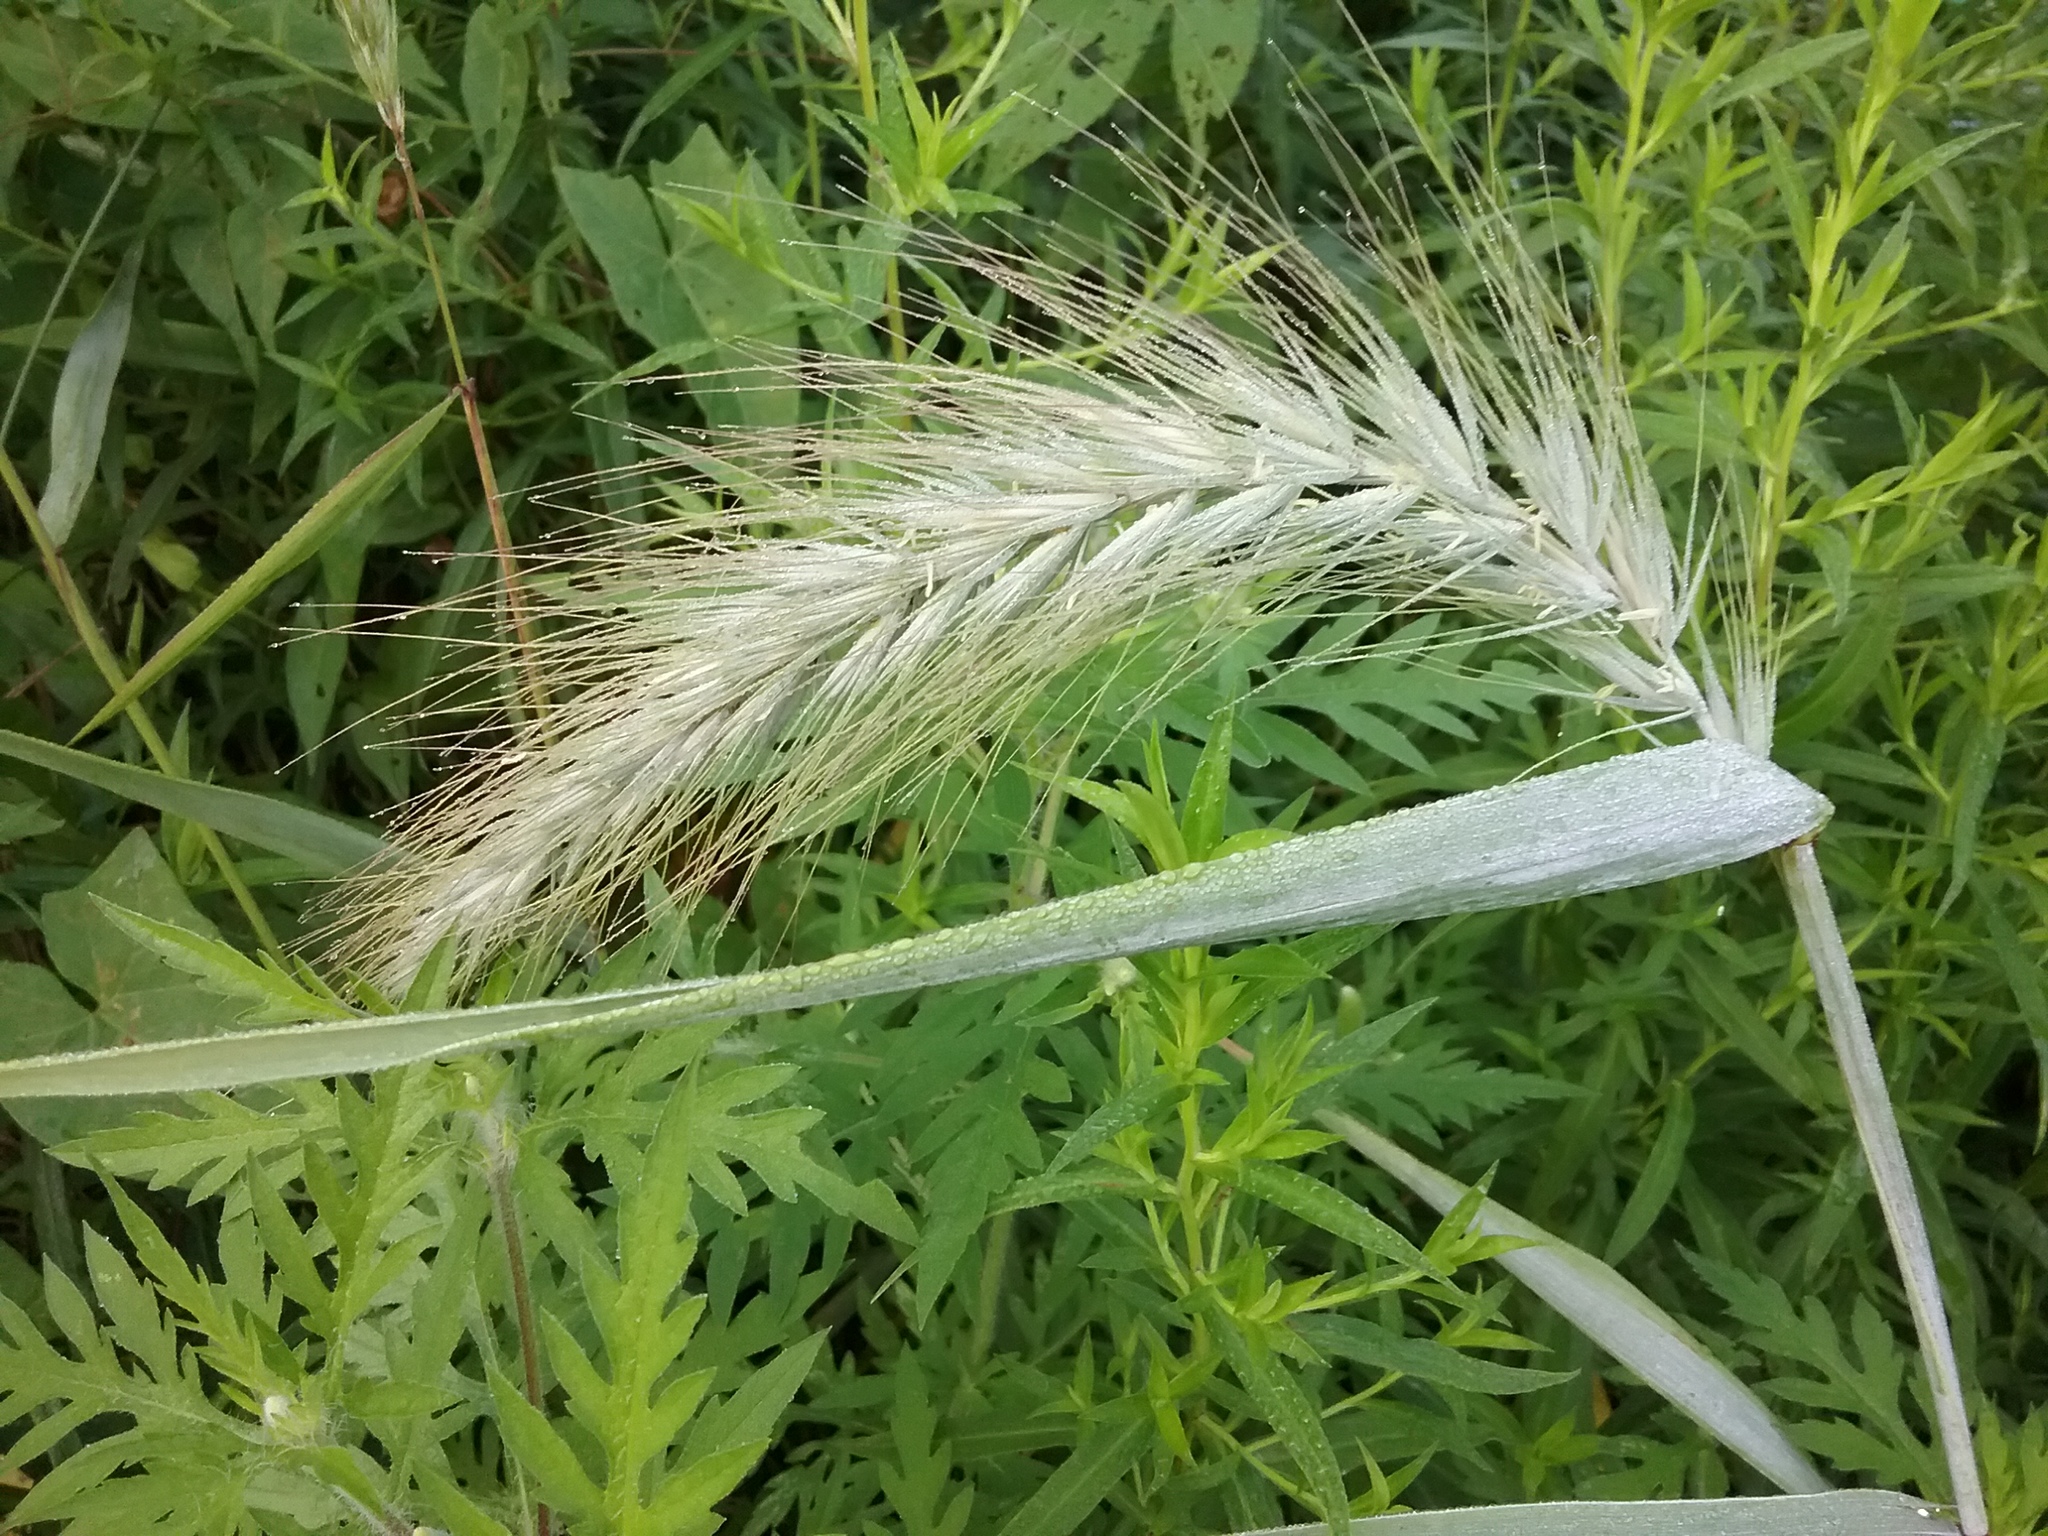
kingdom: Plantae
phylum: Tracheophyta
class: Liliopsida
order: Poales
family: Poaceae
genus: Elymus
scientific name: Elymus canadensis
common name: Canada wild rye
